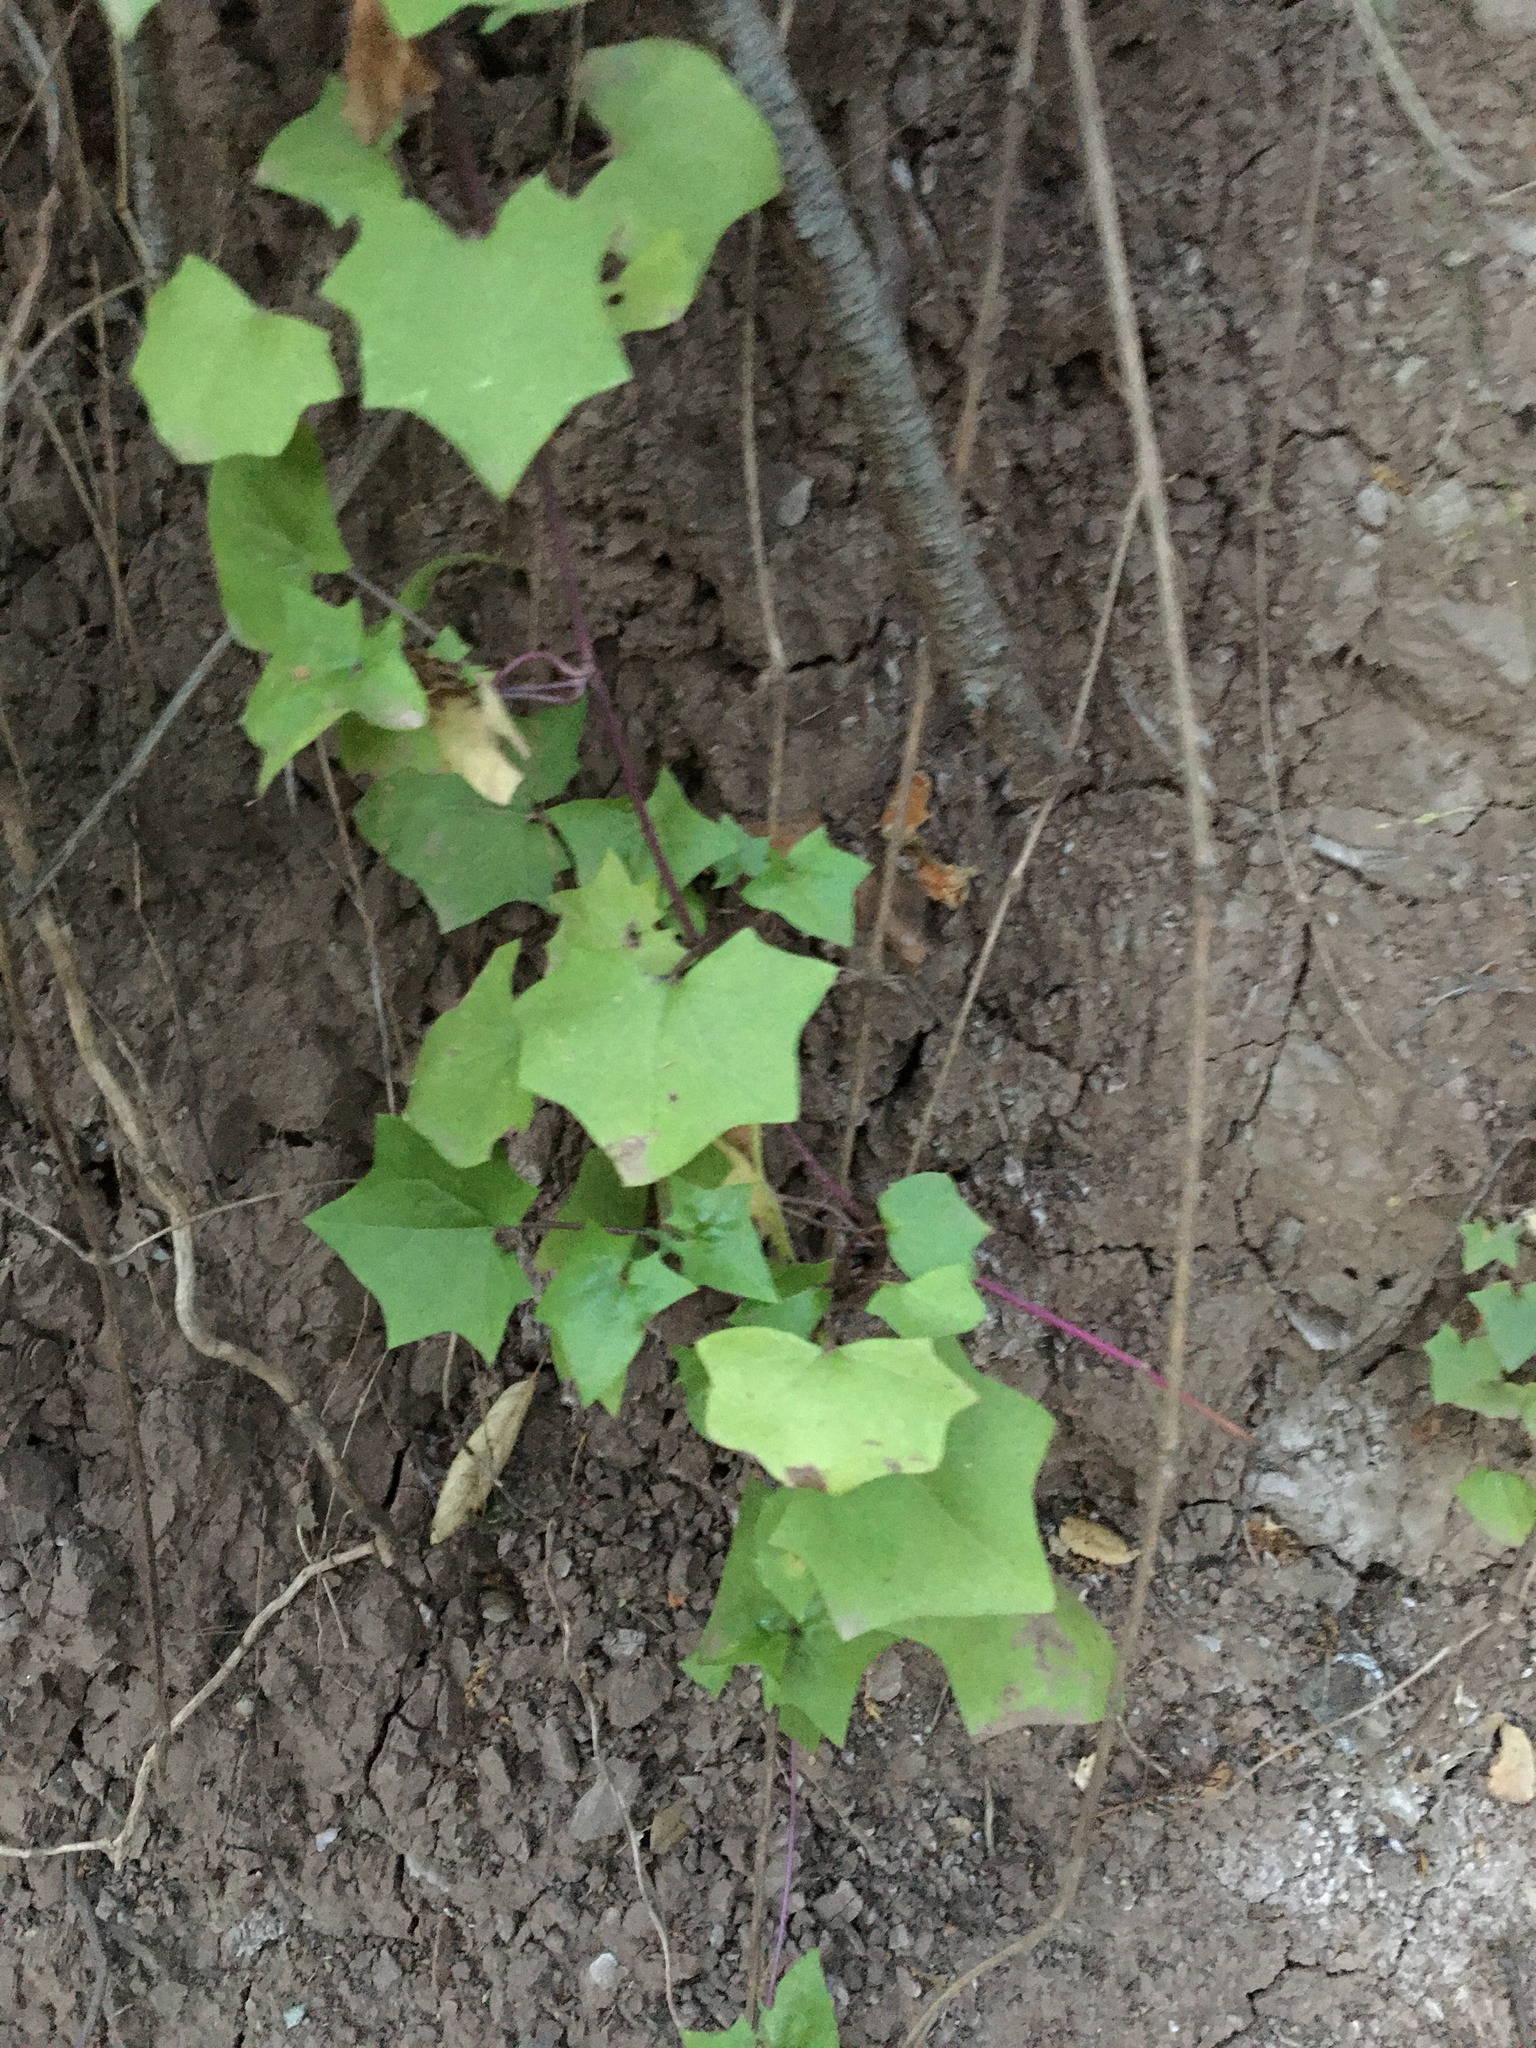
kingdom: Plantae
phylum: Tracheophyta
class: Magnoliopsida
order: Asterales
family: Asteraceae
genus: Delairea
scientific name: Delairea odorata
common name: Cape-ivy
